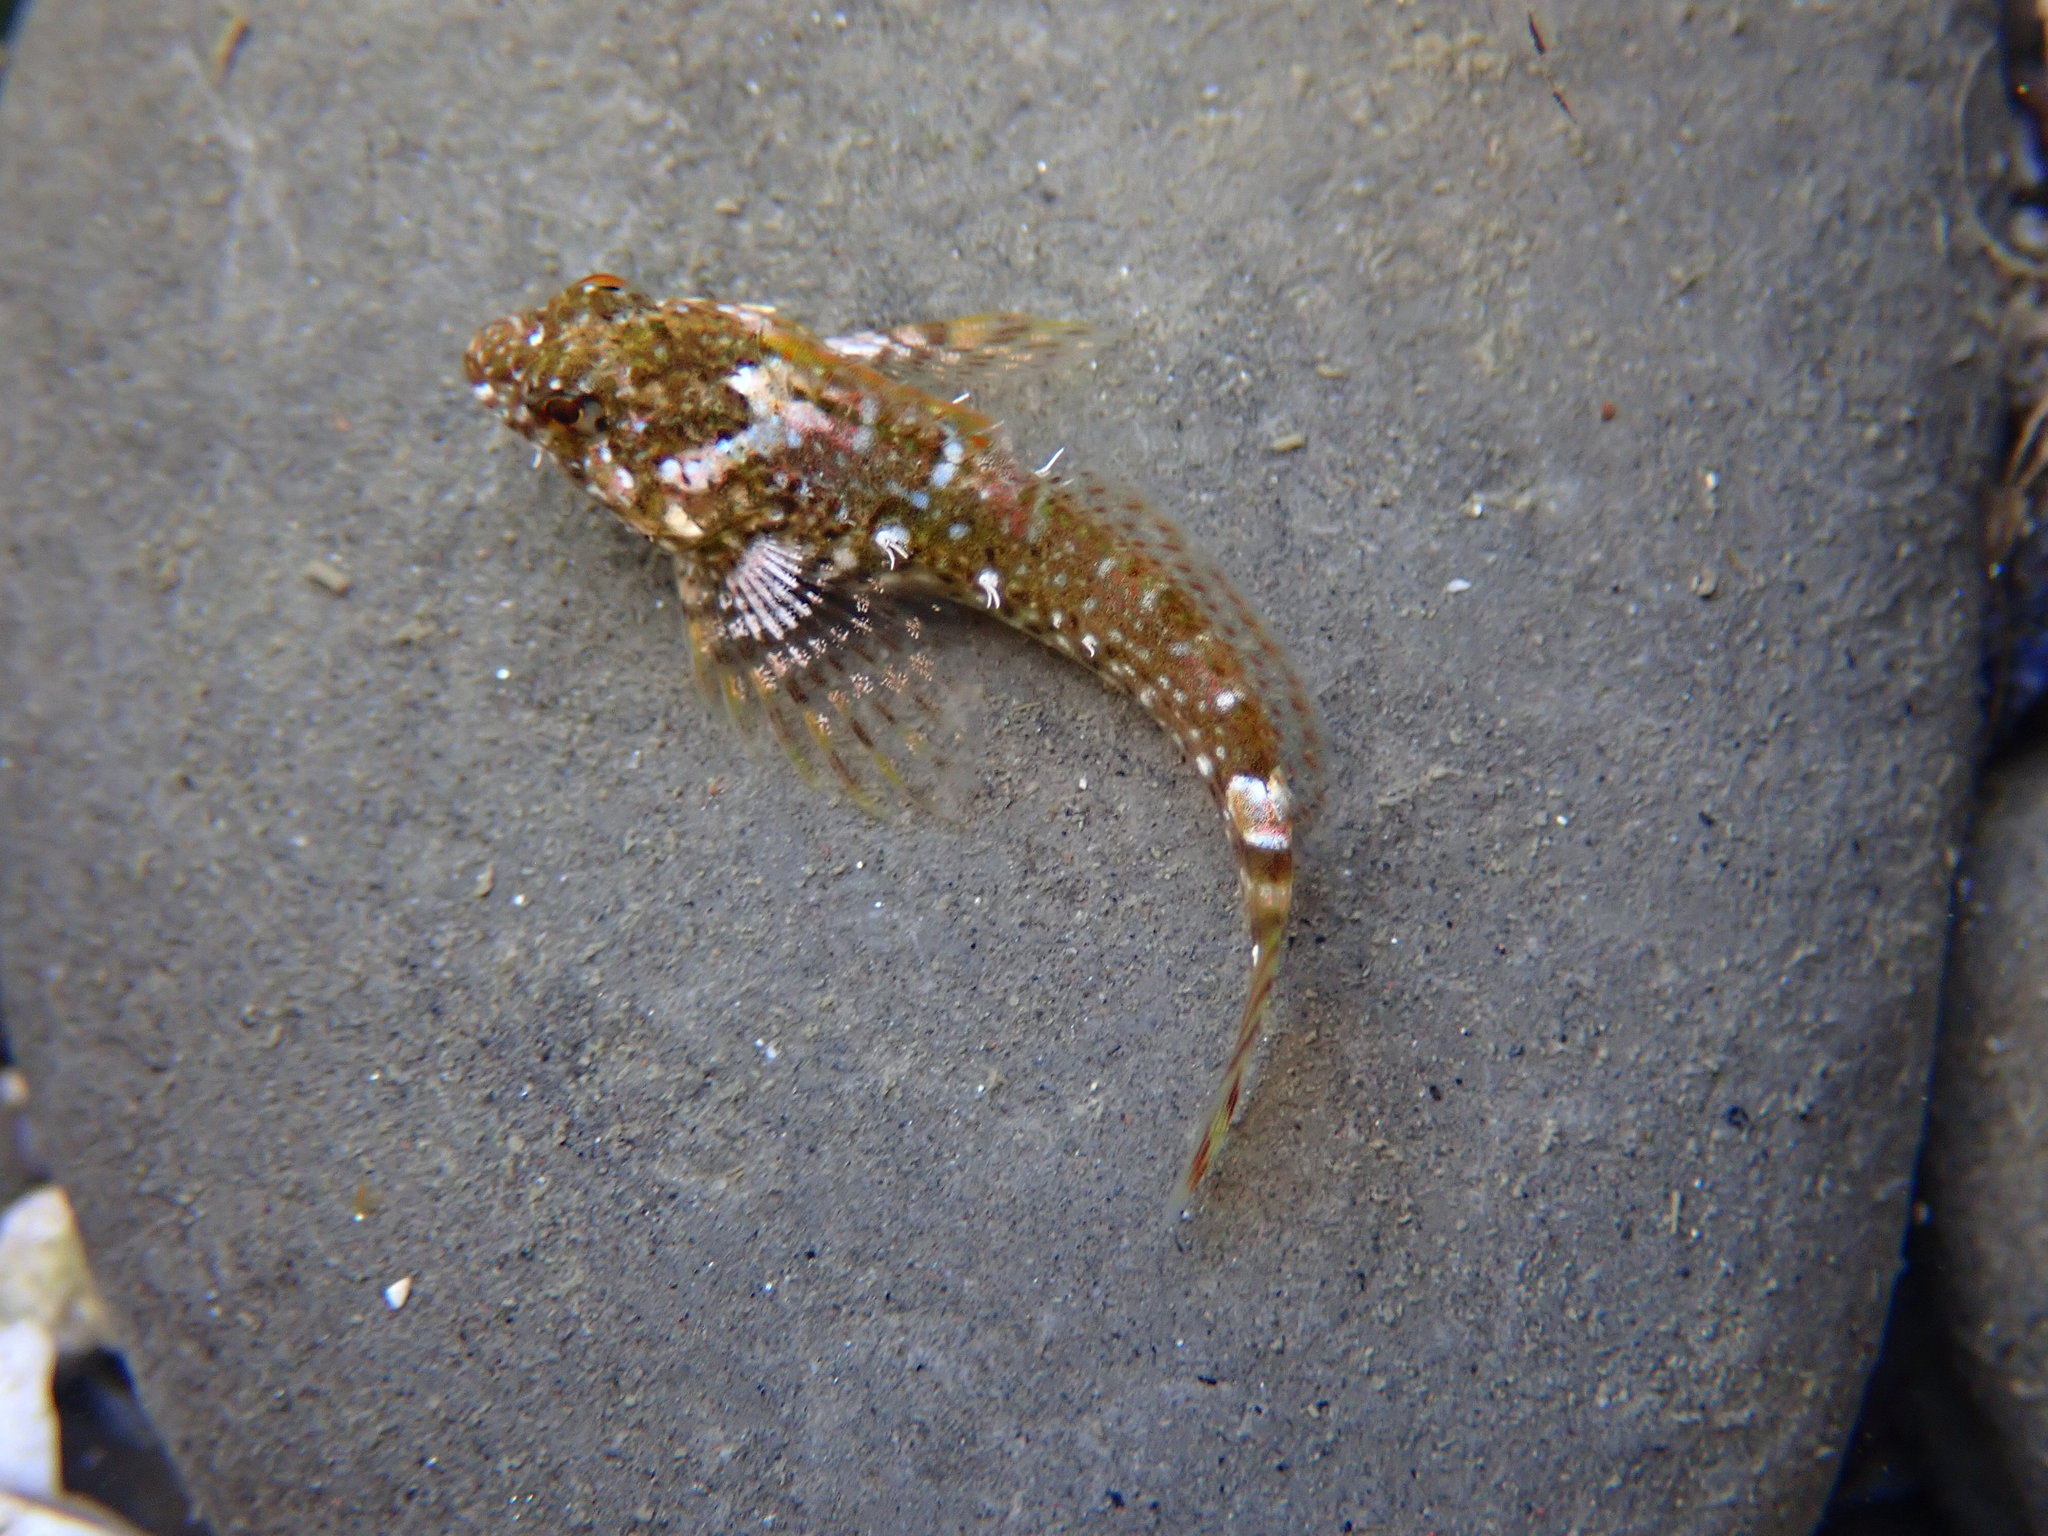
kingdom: Animalia
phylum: Chordata
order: Scorpaeniformes
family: Cottidae
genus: Clinocottus
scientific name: Clinocottus analis
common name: Woolly sculpin
